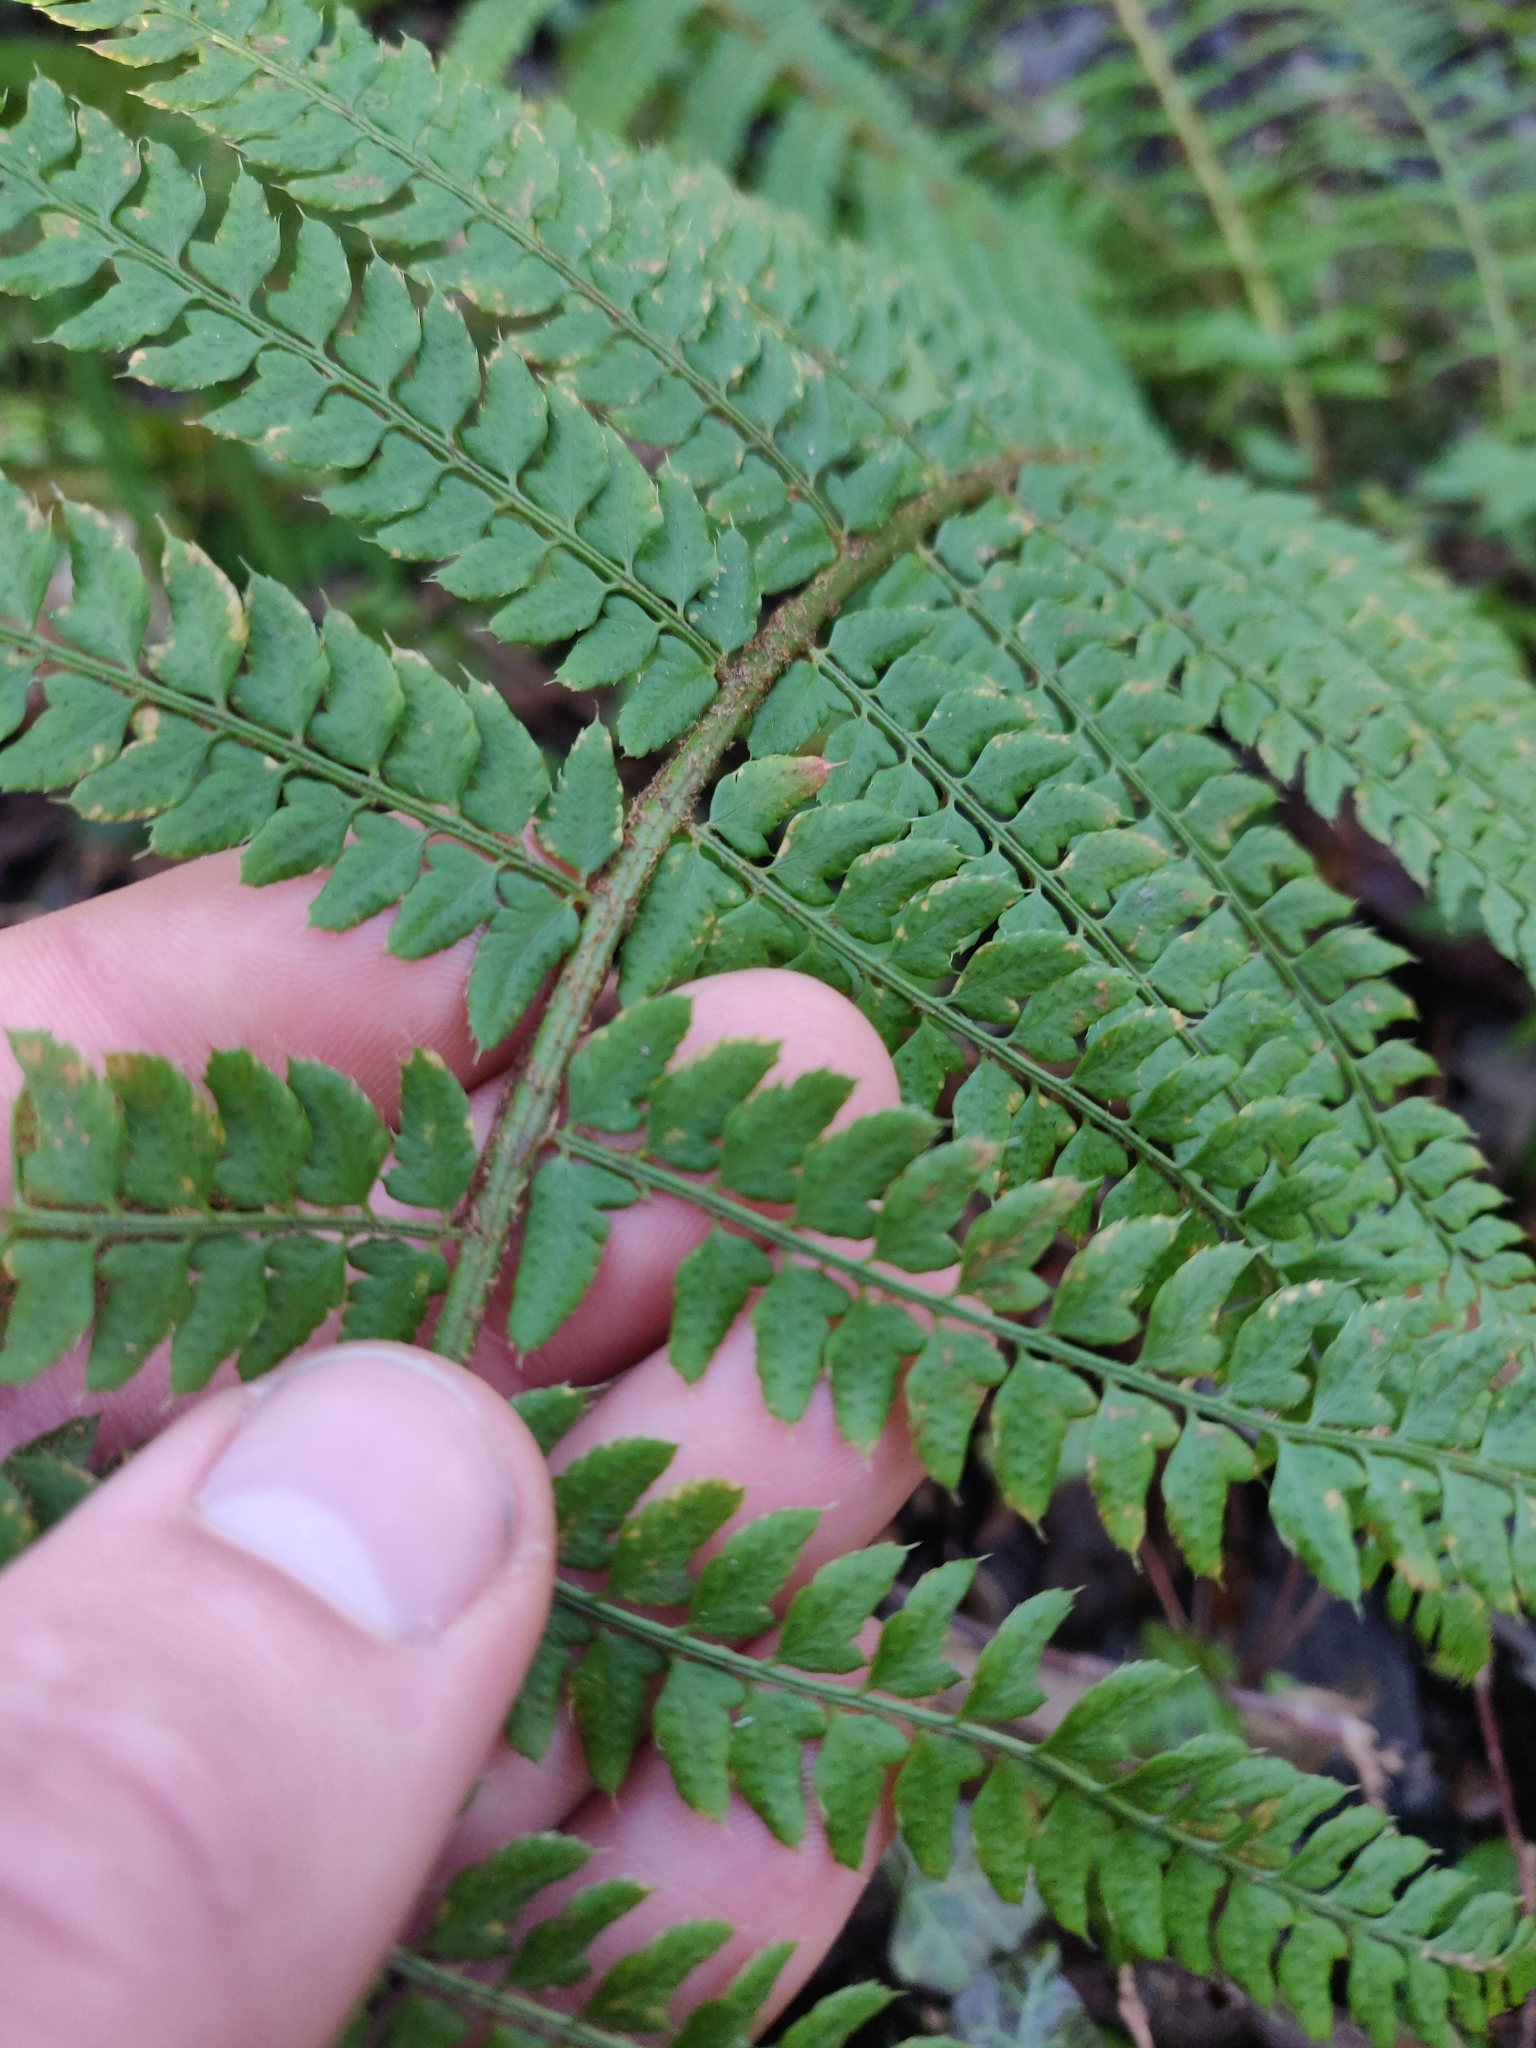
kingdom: Plantae
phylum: Tracheophyta
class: Polypodiopsida
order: Polypodiales
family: Dryopteridaceae
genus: Polystichum
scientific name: Polystichum setiferum
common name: Soft shield-fern
